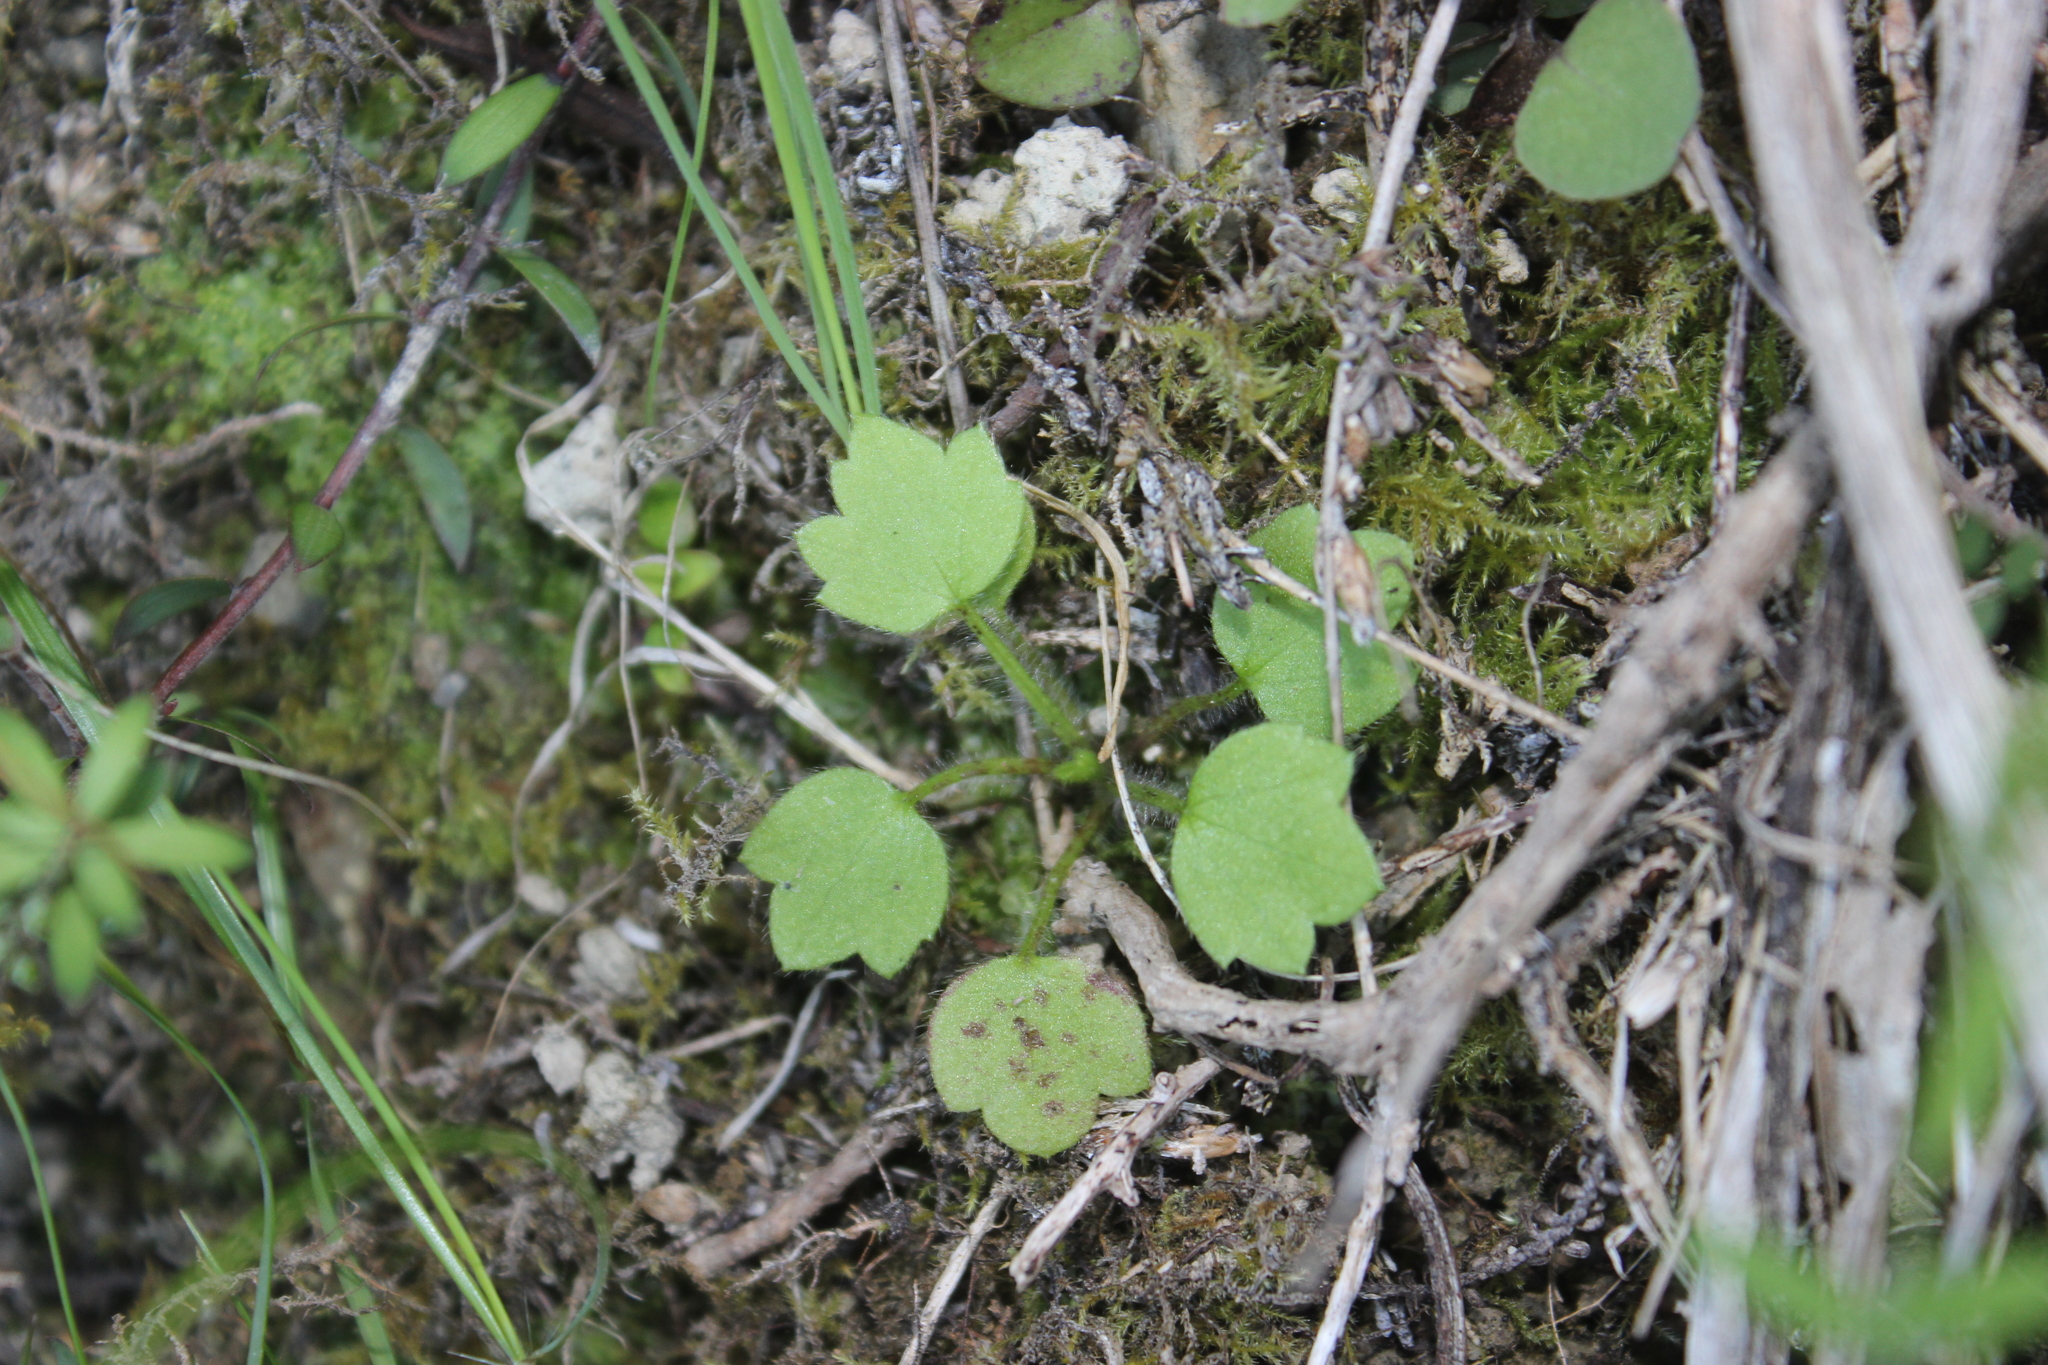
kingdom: Plantae
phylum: Tracheophyta
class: Magnoliopsida
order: Ranunculales
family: Ranunculaceae
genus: Ranunculus
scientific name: Ranunculus reflexus
